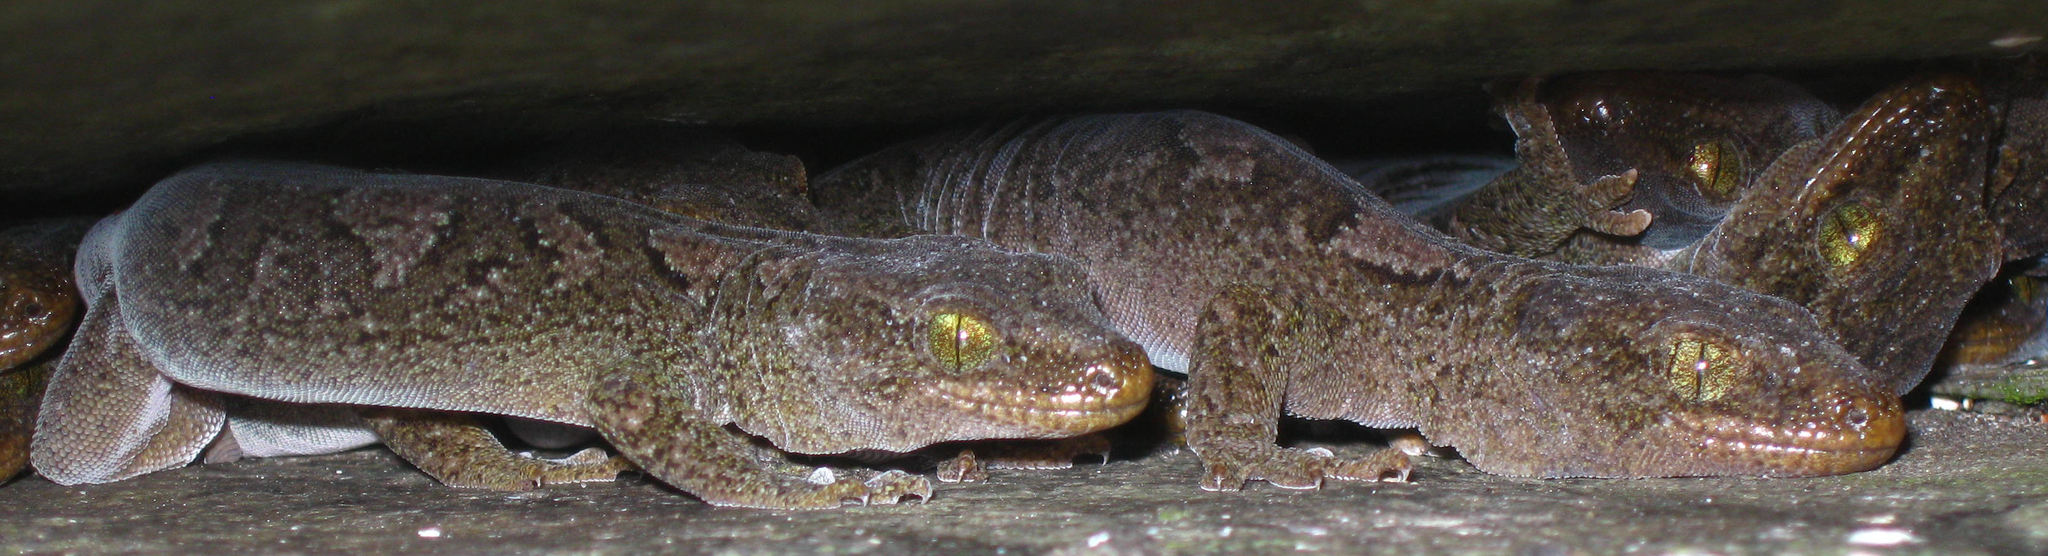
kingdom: Animalia
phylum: Chordata
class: Squamata
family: Diplodactylidae
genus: Woodworthia
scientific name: Woodworthia
